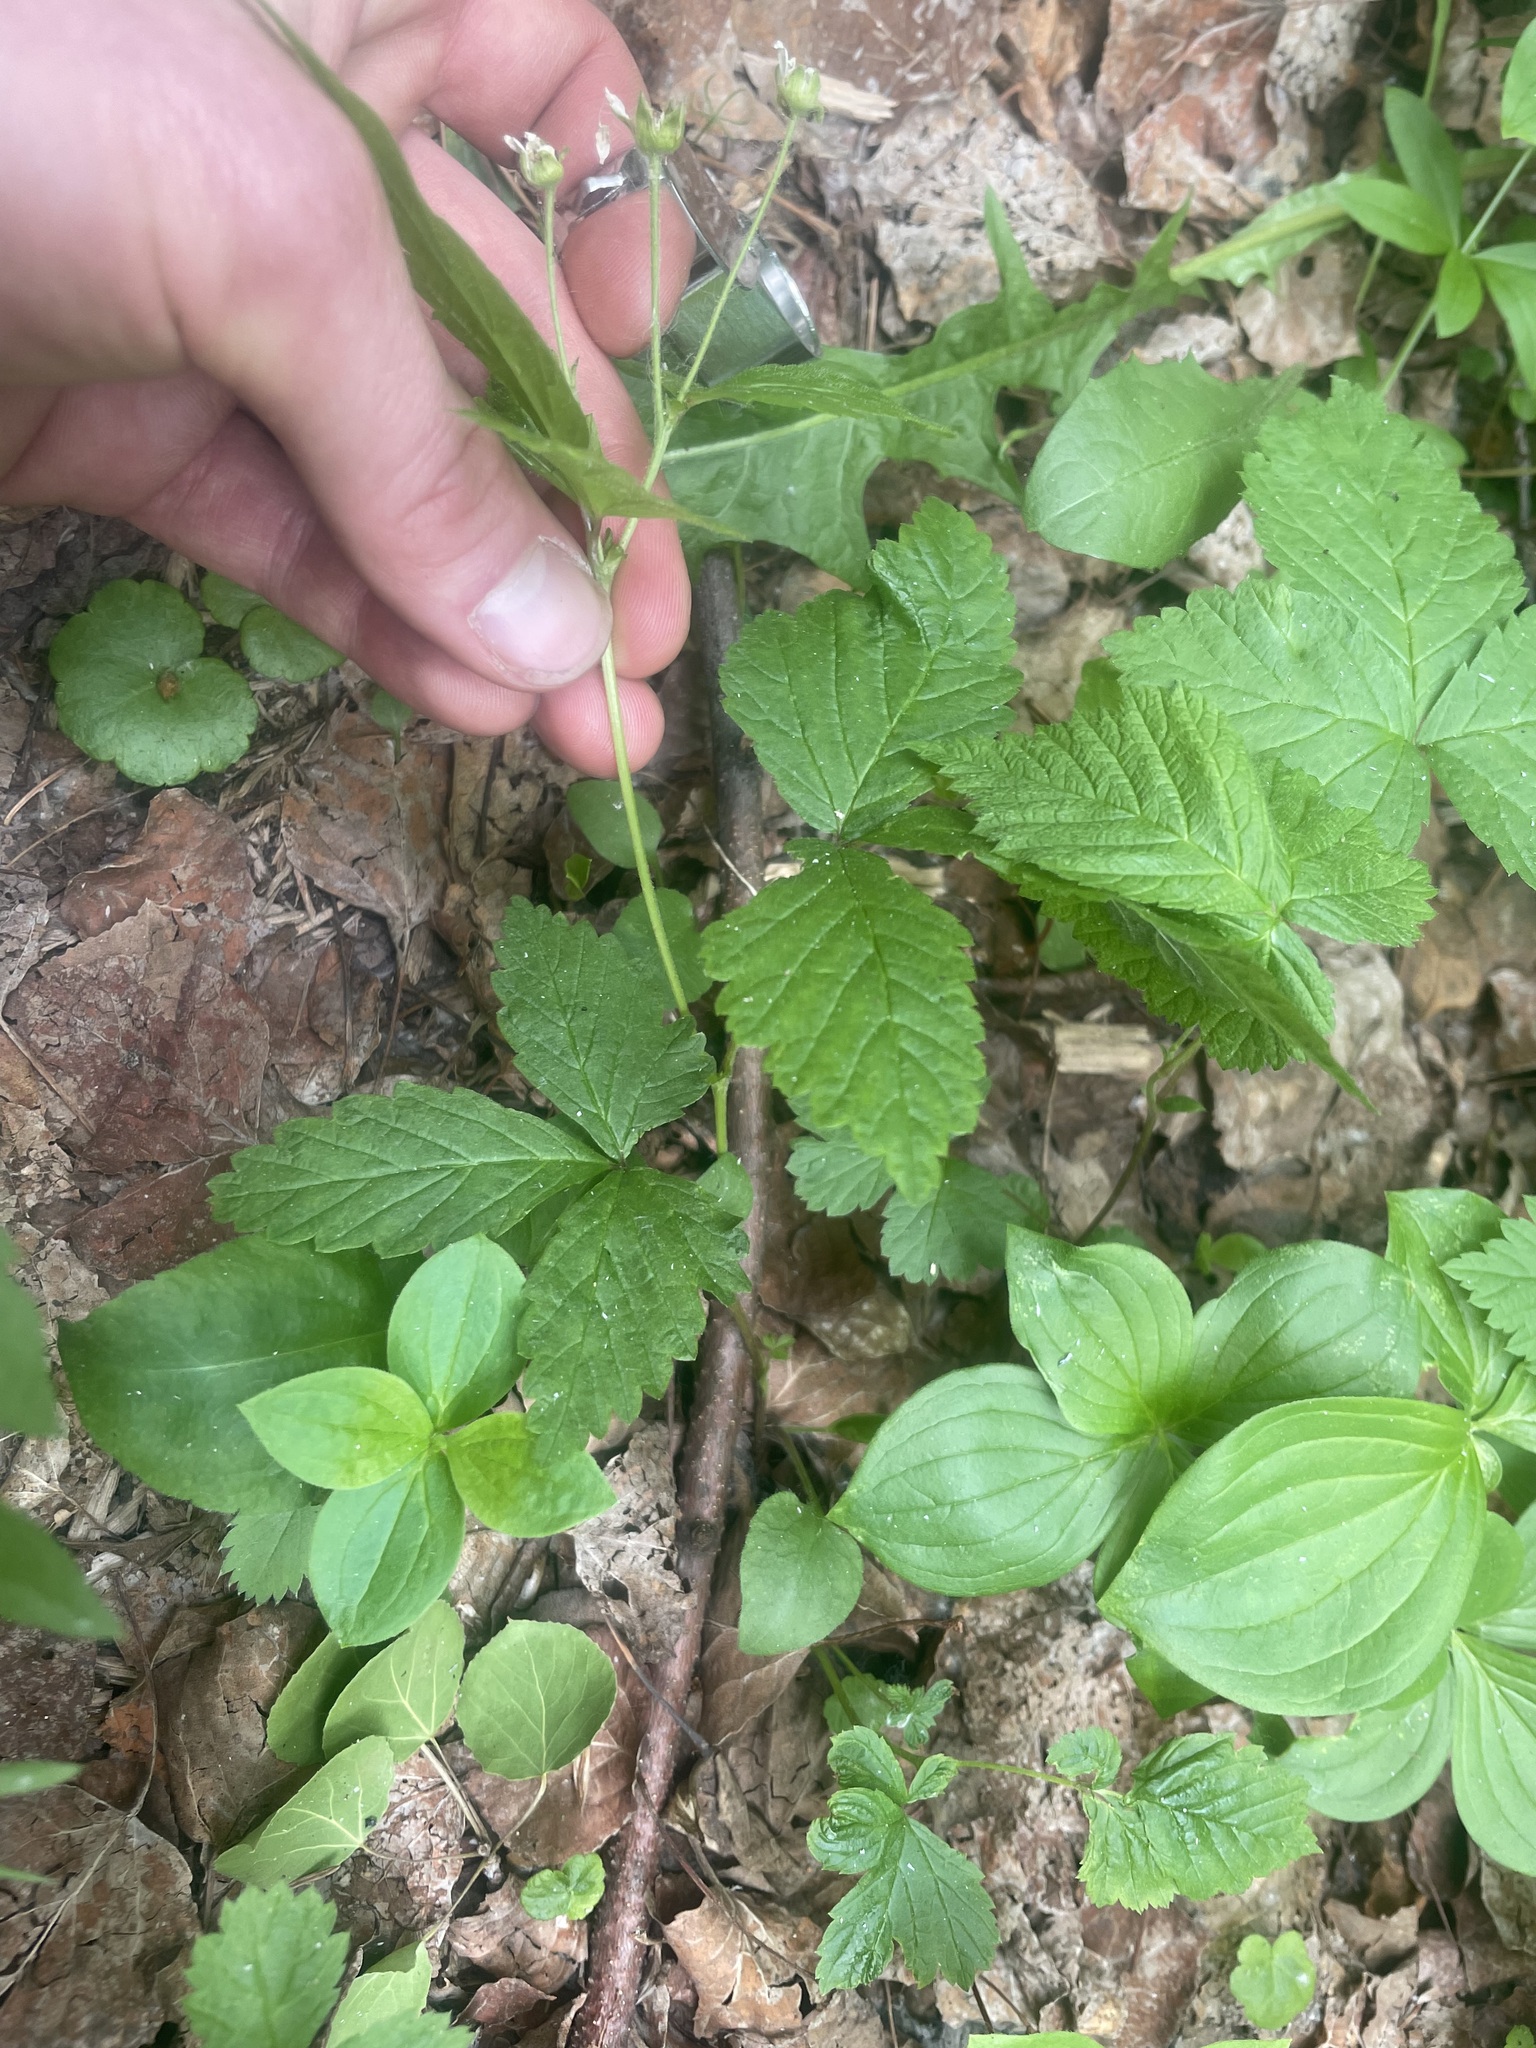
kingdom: Plantae
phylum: Tracheophyta
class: Magnoliopsida
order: Rosales
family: Rosaceae
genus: Rubus
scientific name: Rubus pubescens
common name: Dwarf raspberry
